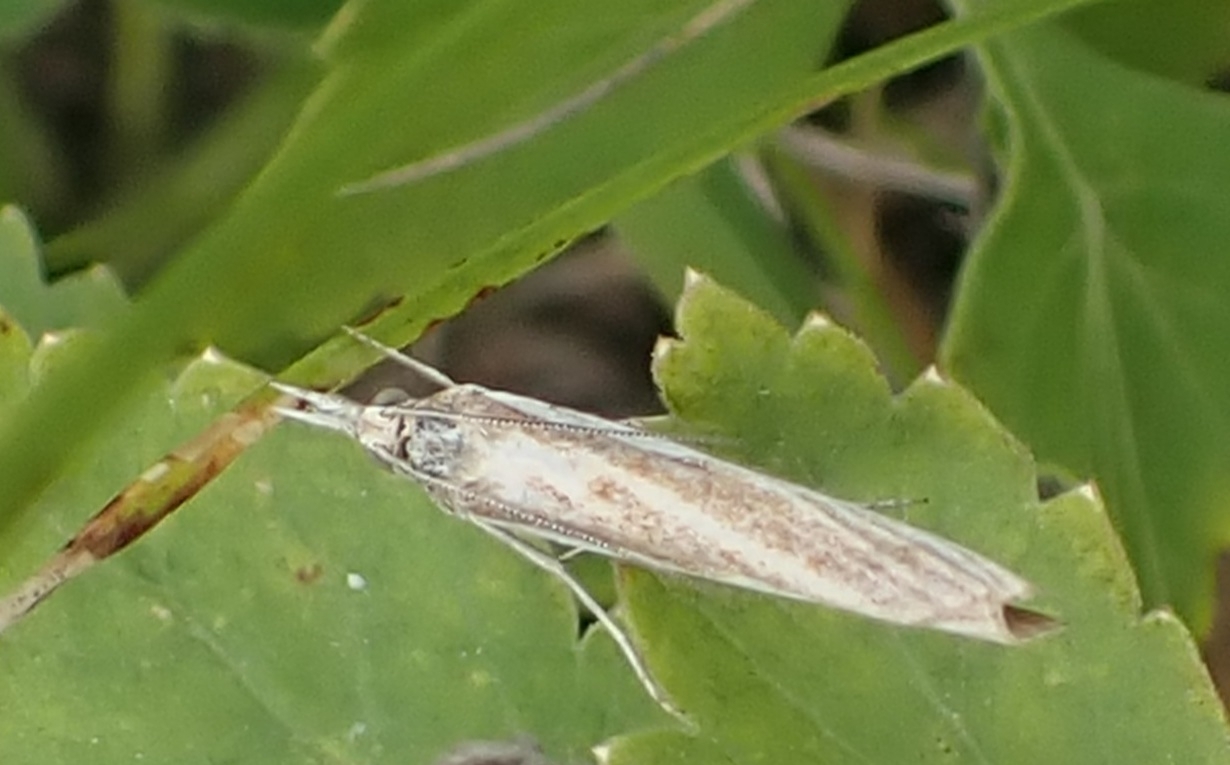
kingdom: Animalia
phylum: Arthropoda
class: Insecta
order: Lepidoptera
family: Crambidae
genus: Agriphila
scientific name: Agriphila tristellus
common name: Common grass-veneer
